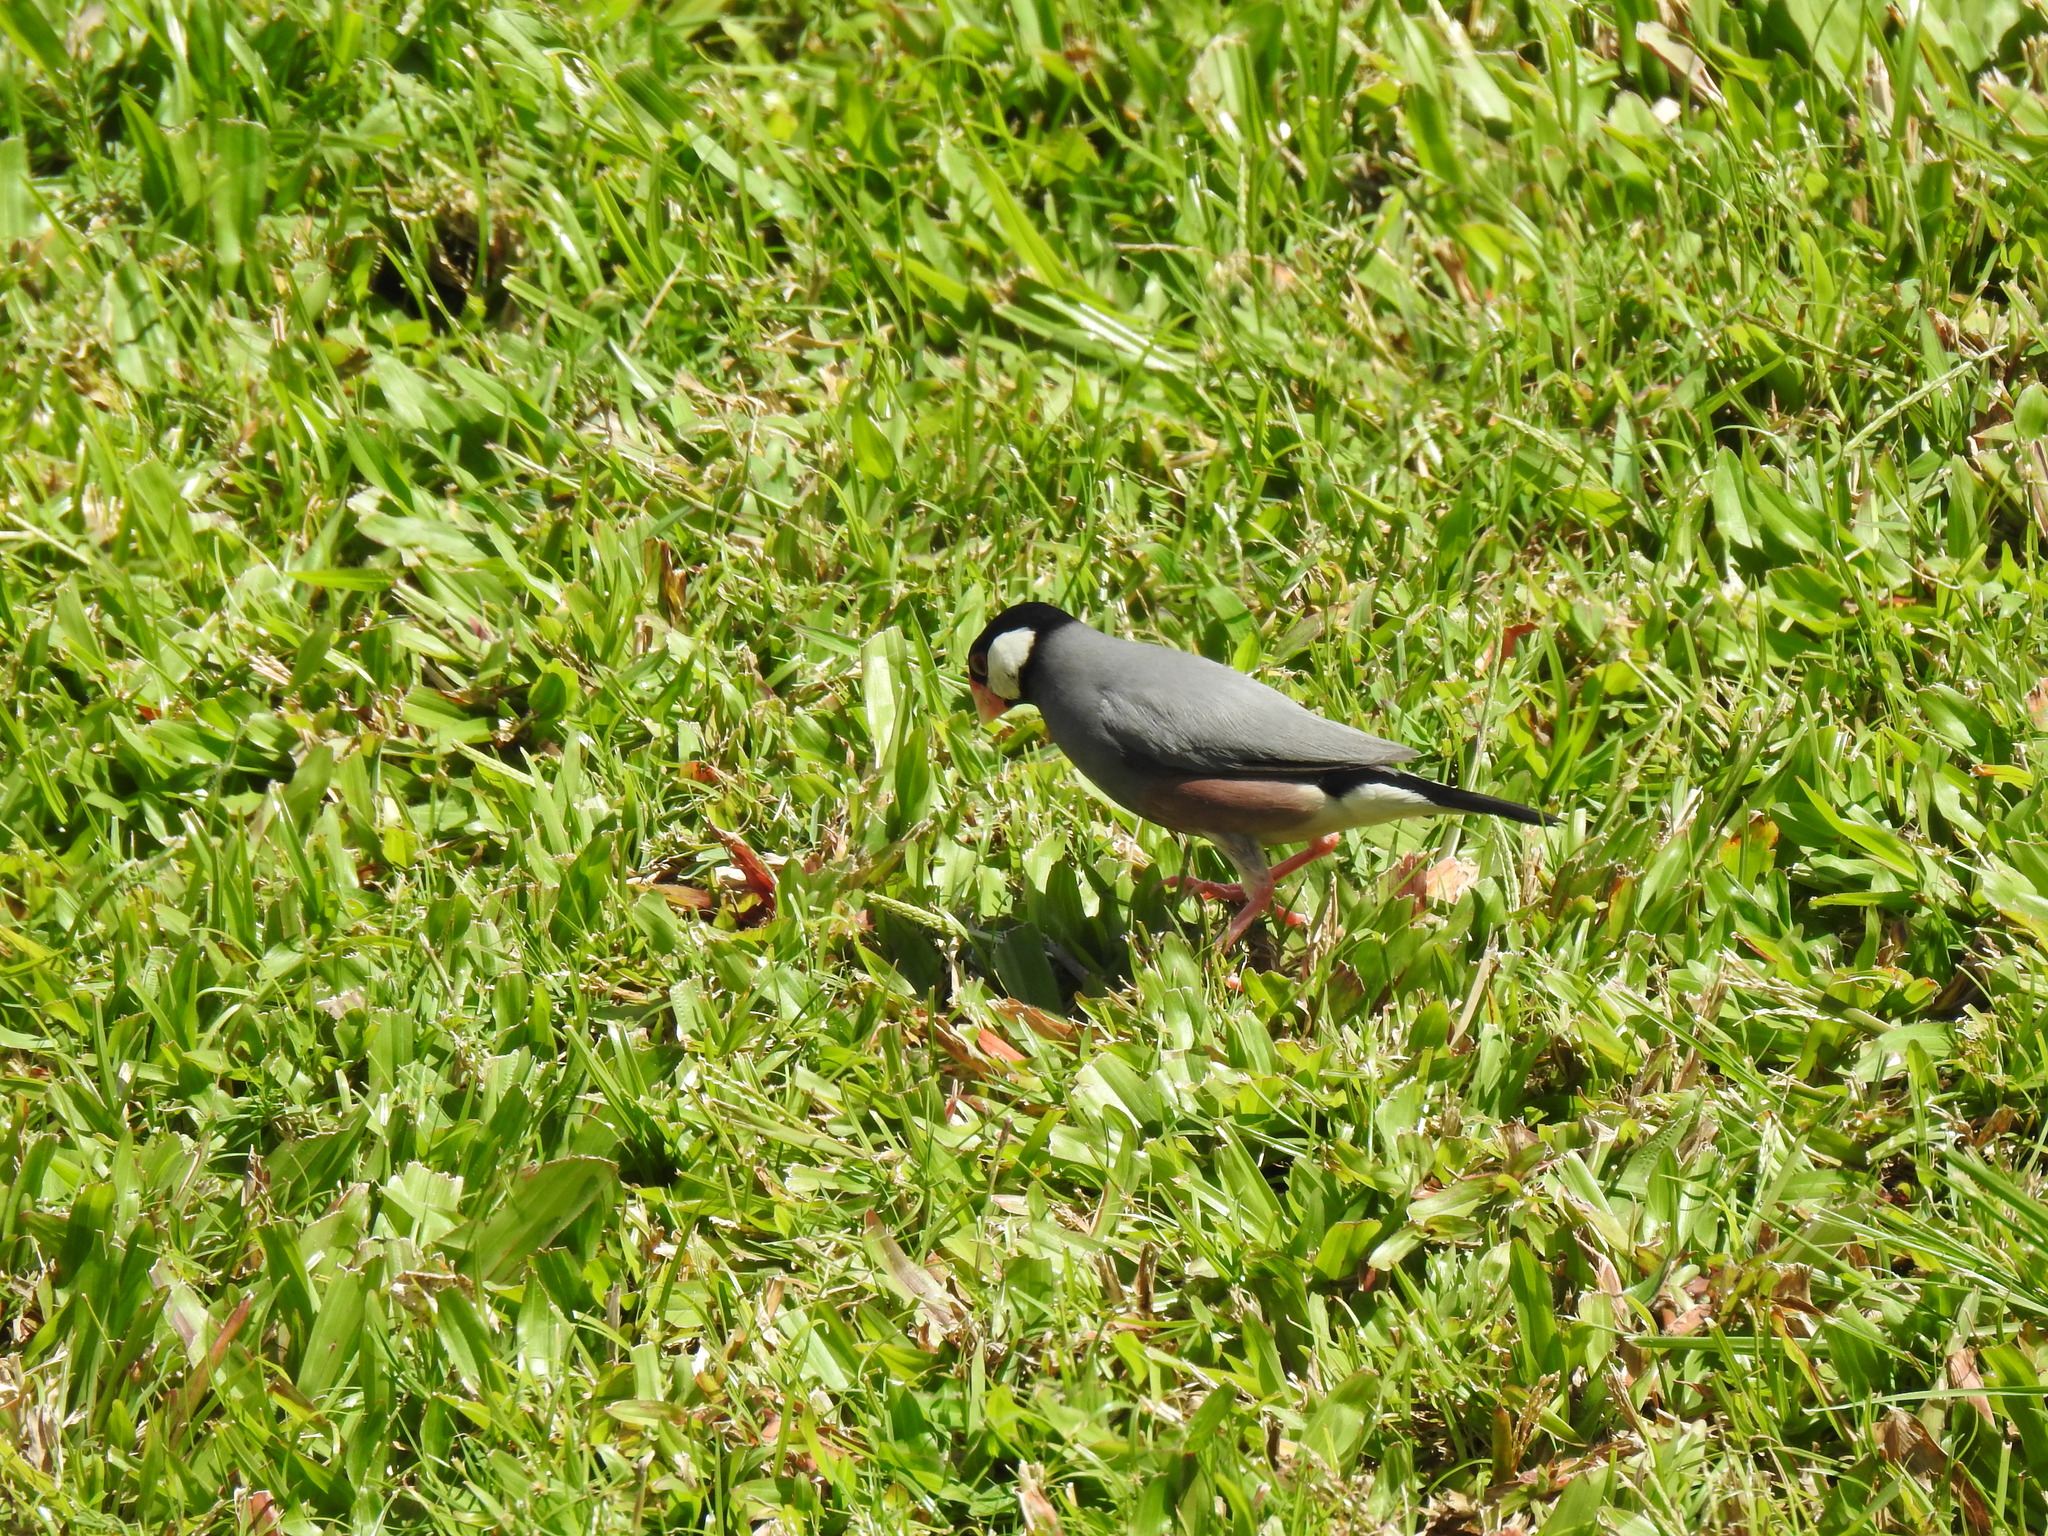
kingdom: Animalia
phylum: Chordata
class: Aves
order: Passeriformes
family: Estrildidae
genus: Lonchura
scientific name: Lonchura oryzivora
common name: Java sparrow
